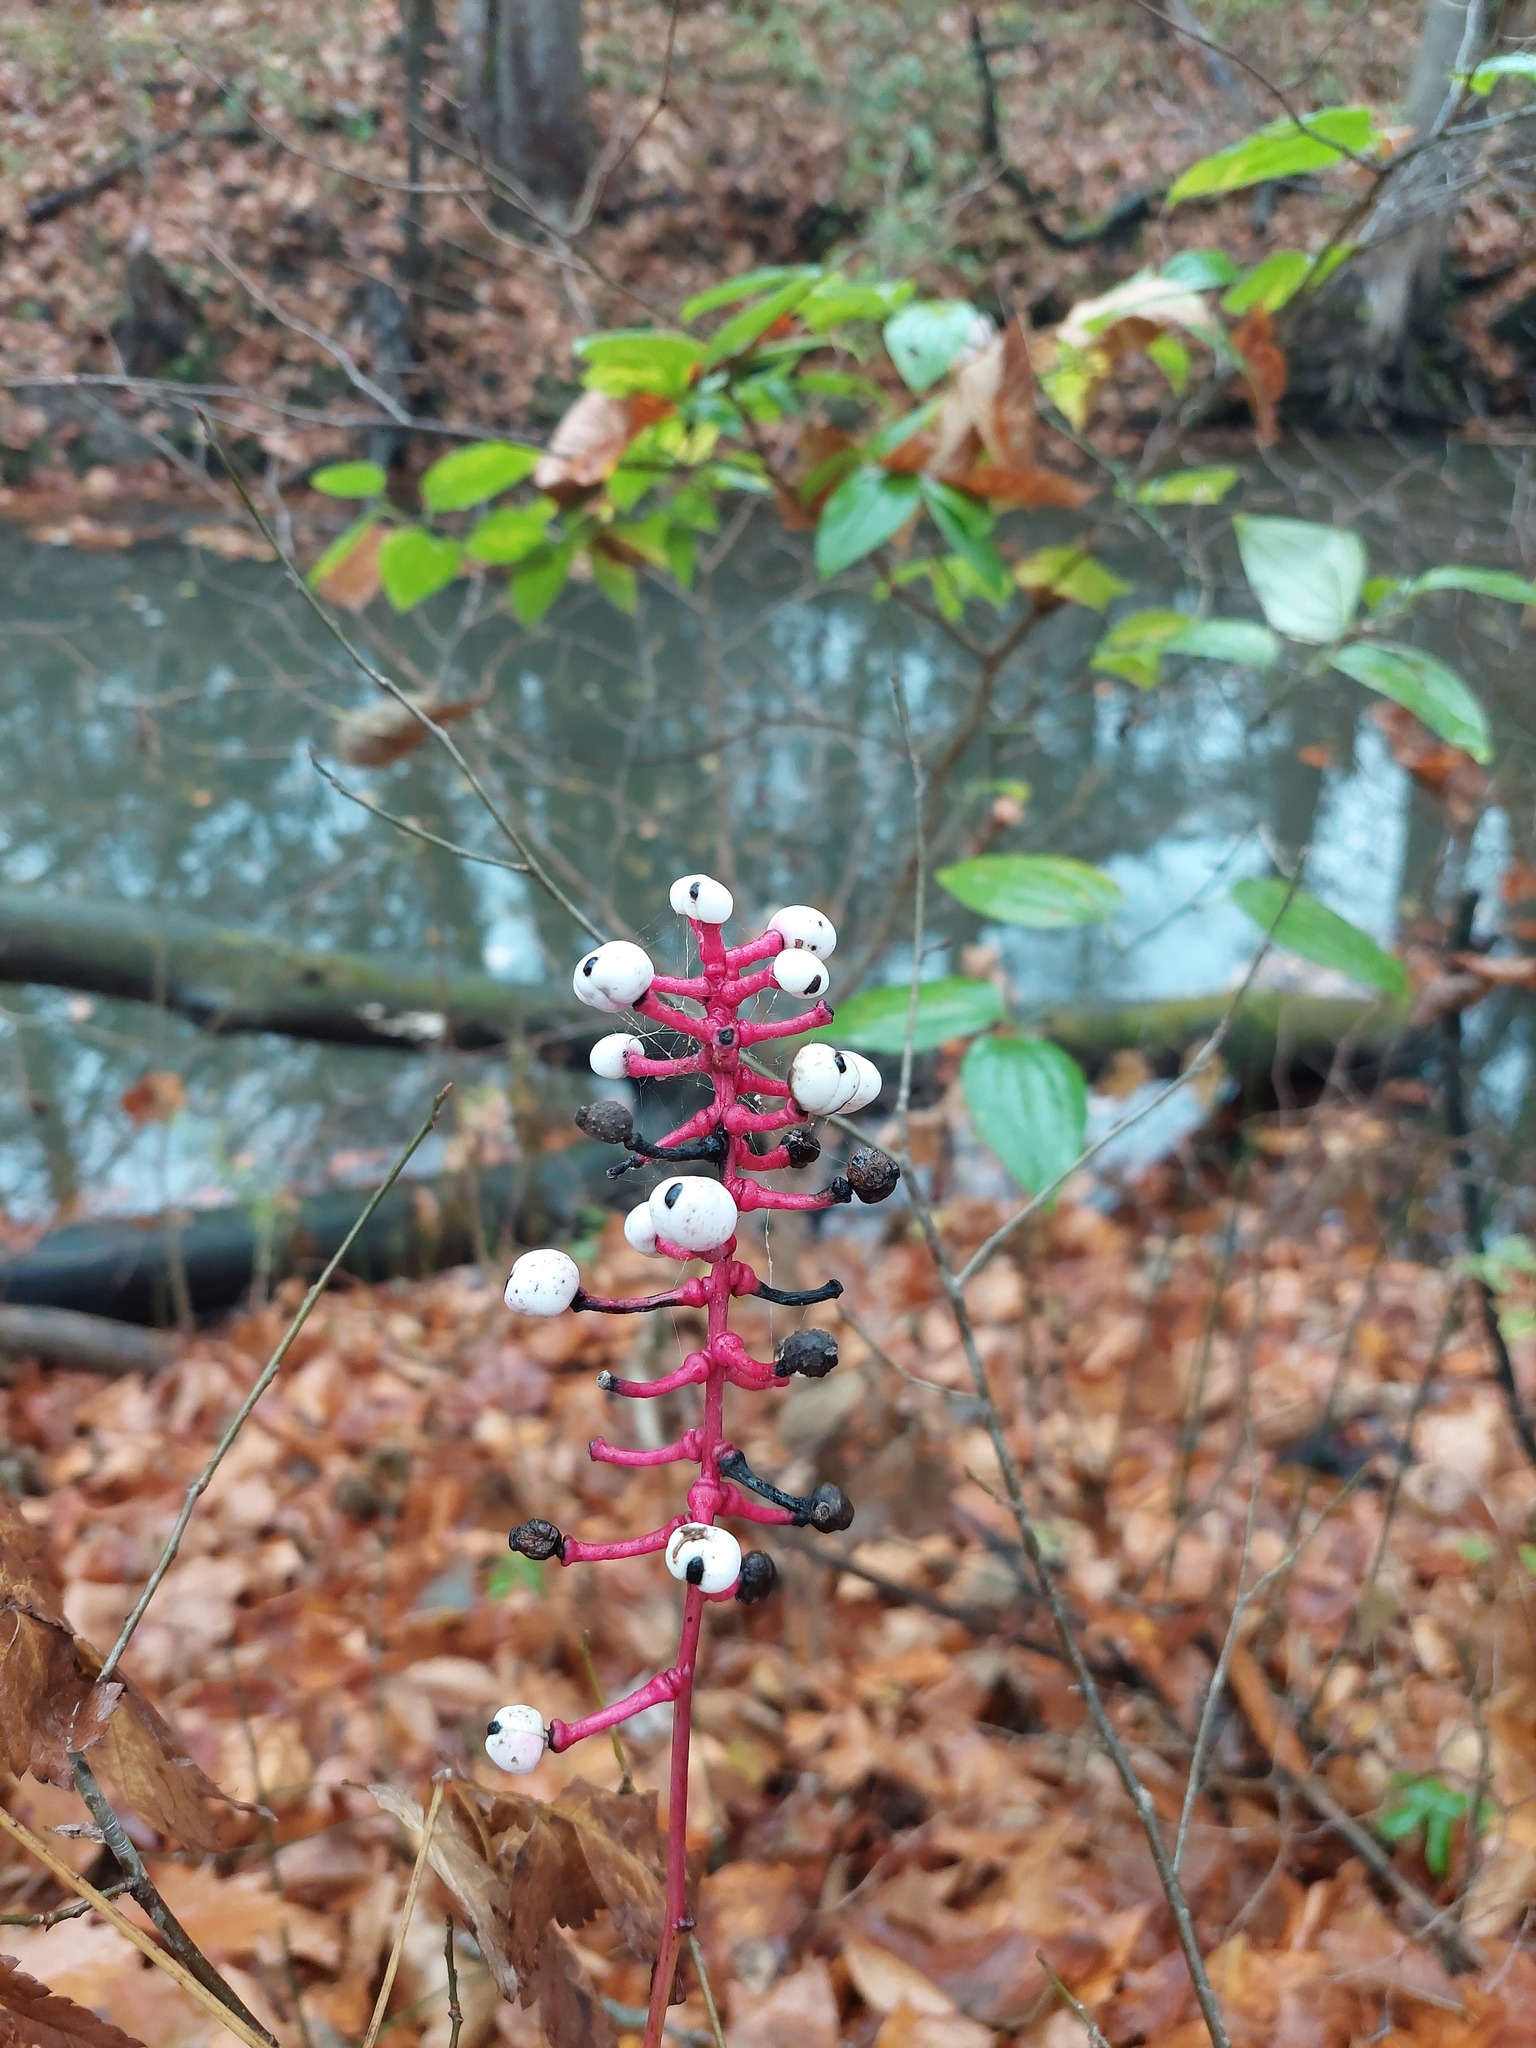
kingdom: Plantae
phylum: Tracheophyta
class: Magnoliopsida
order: Ranunculales
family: Ranunculaceae
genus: Actaea
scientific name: Actaea pachypoda
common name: Doll's-eyes
